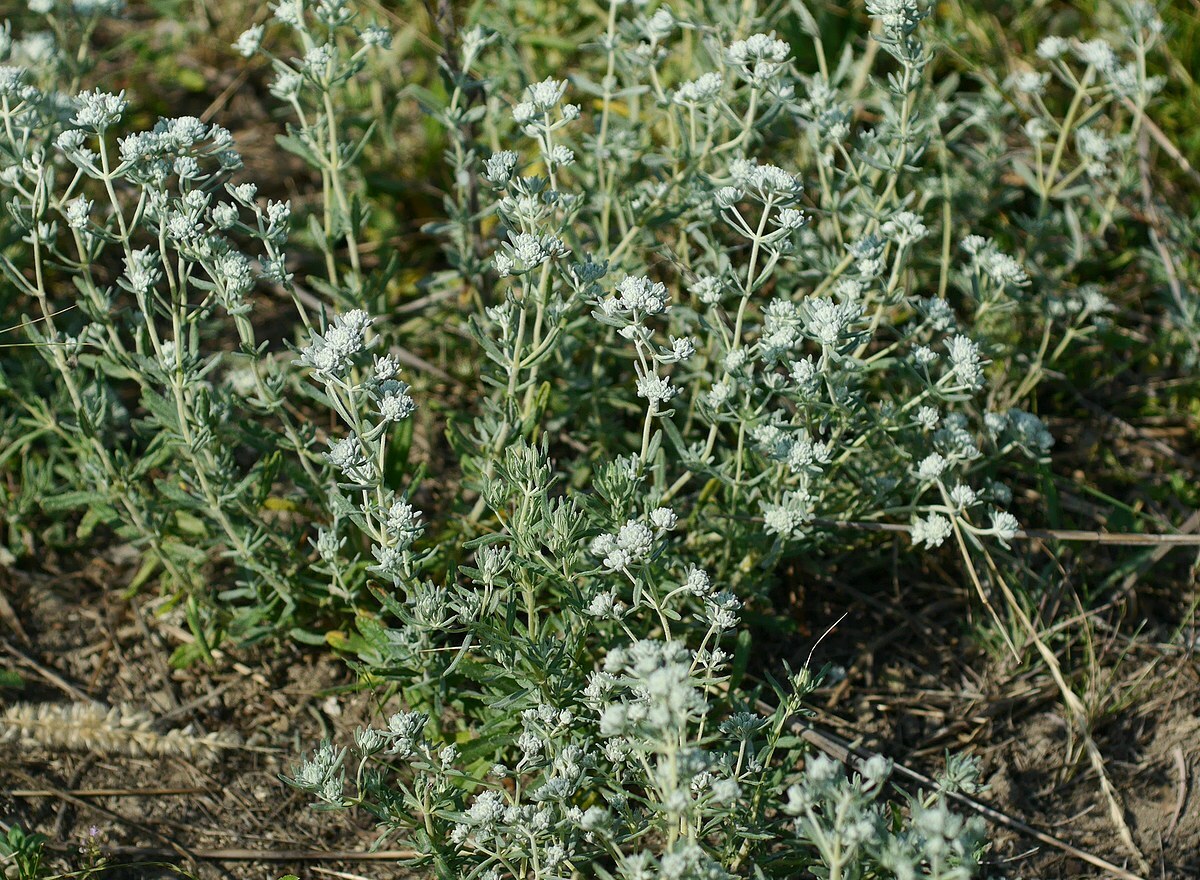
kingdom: Plantae
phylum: Tracheophyta
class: Magnoliopsida
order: Lamiales
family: Lamiaceae
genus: Teucrium
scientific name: Teucrium polium
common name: Poley
